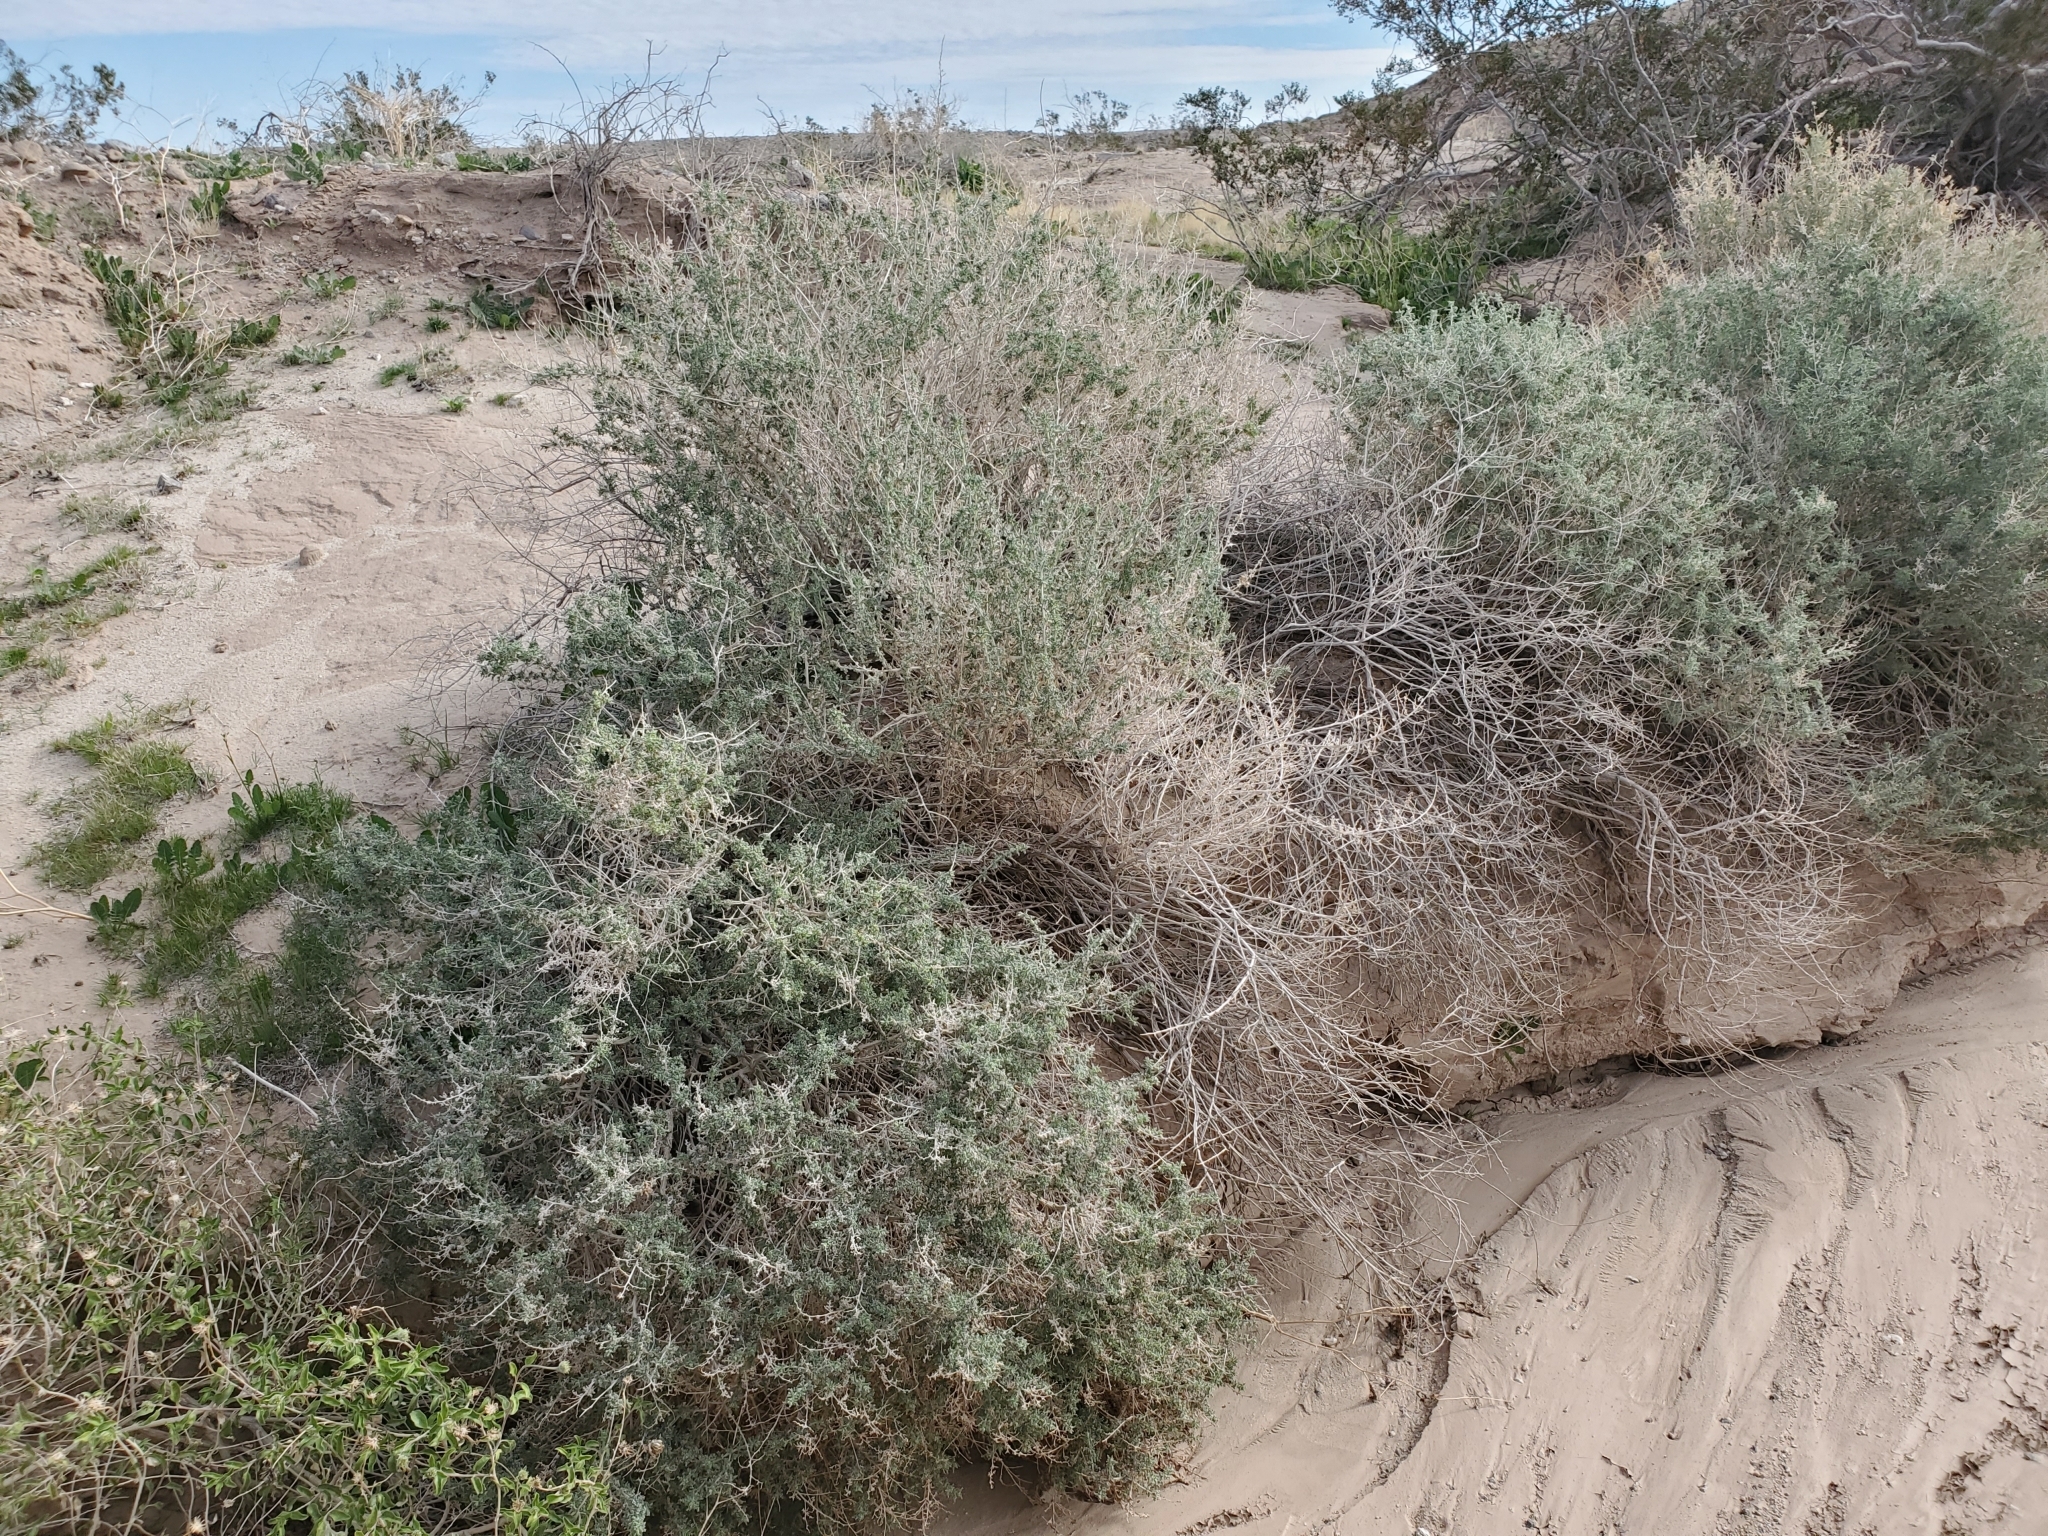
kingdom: Plantae
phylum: Tracheophyta
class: Magnoliopsida
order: Asterales
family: Asteraceae
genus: Ambrosia
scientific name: Ambrosia dumosa
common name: Bur-sage
